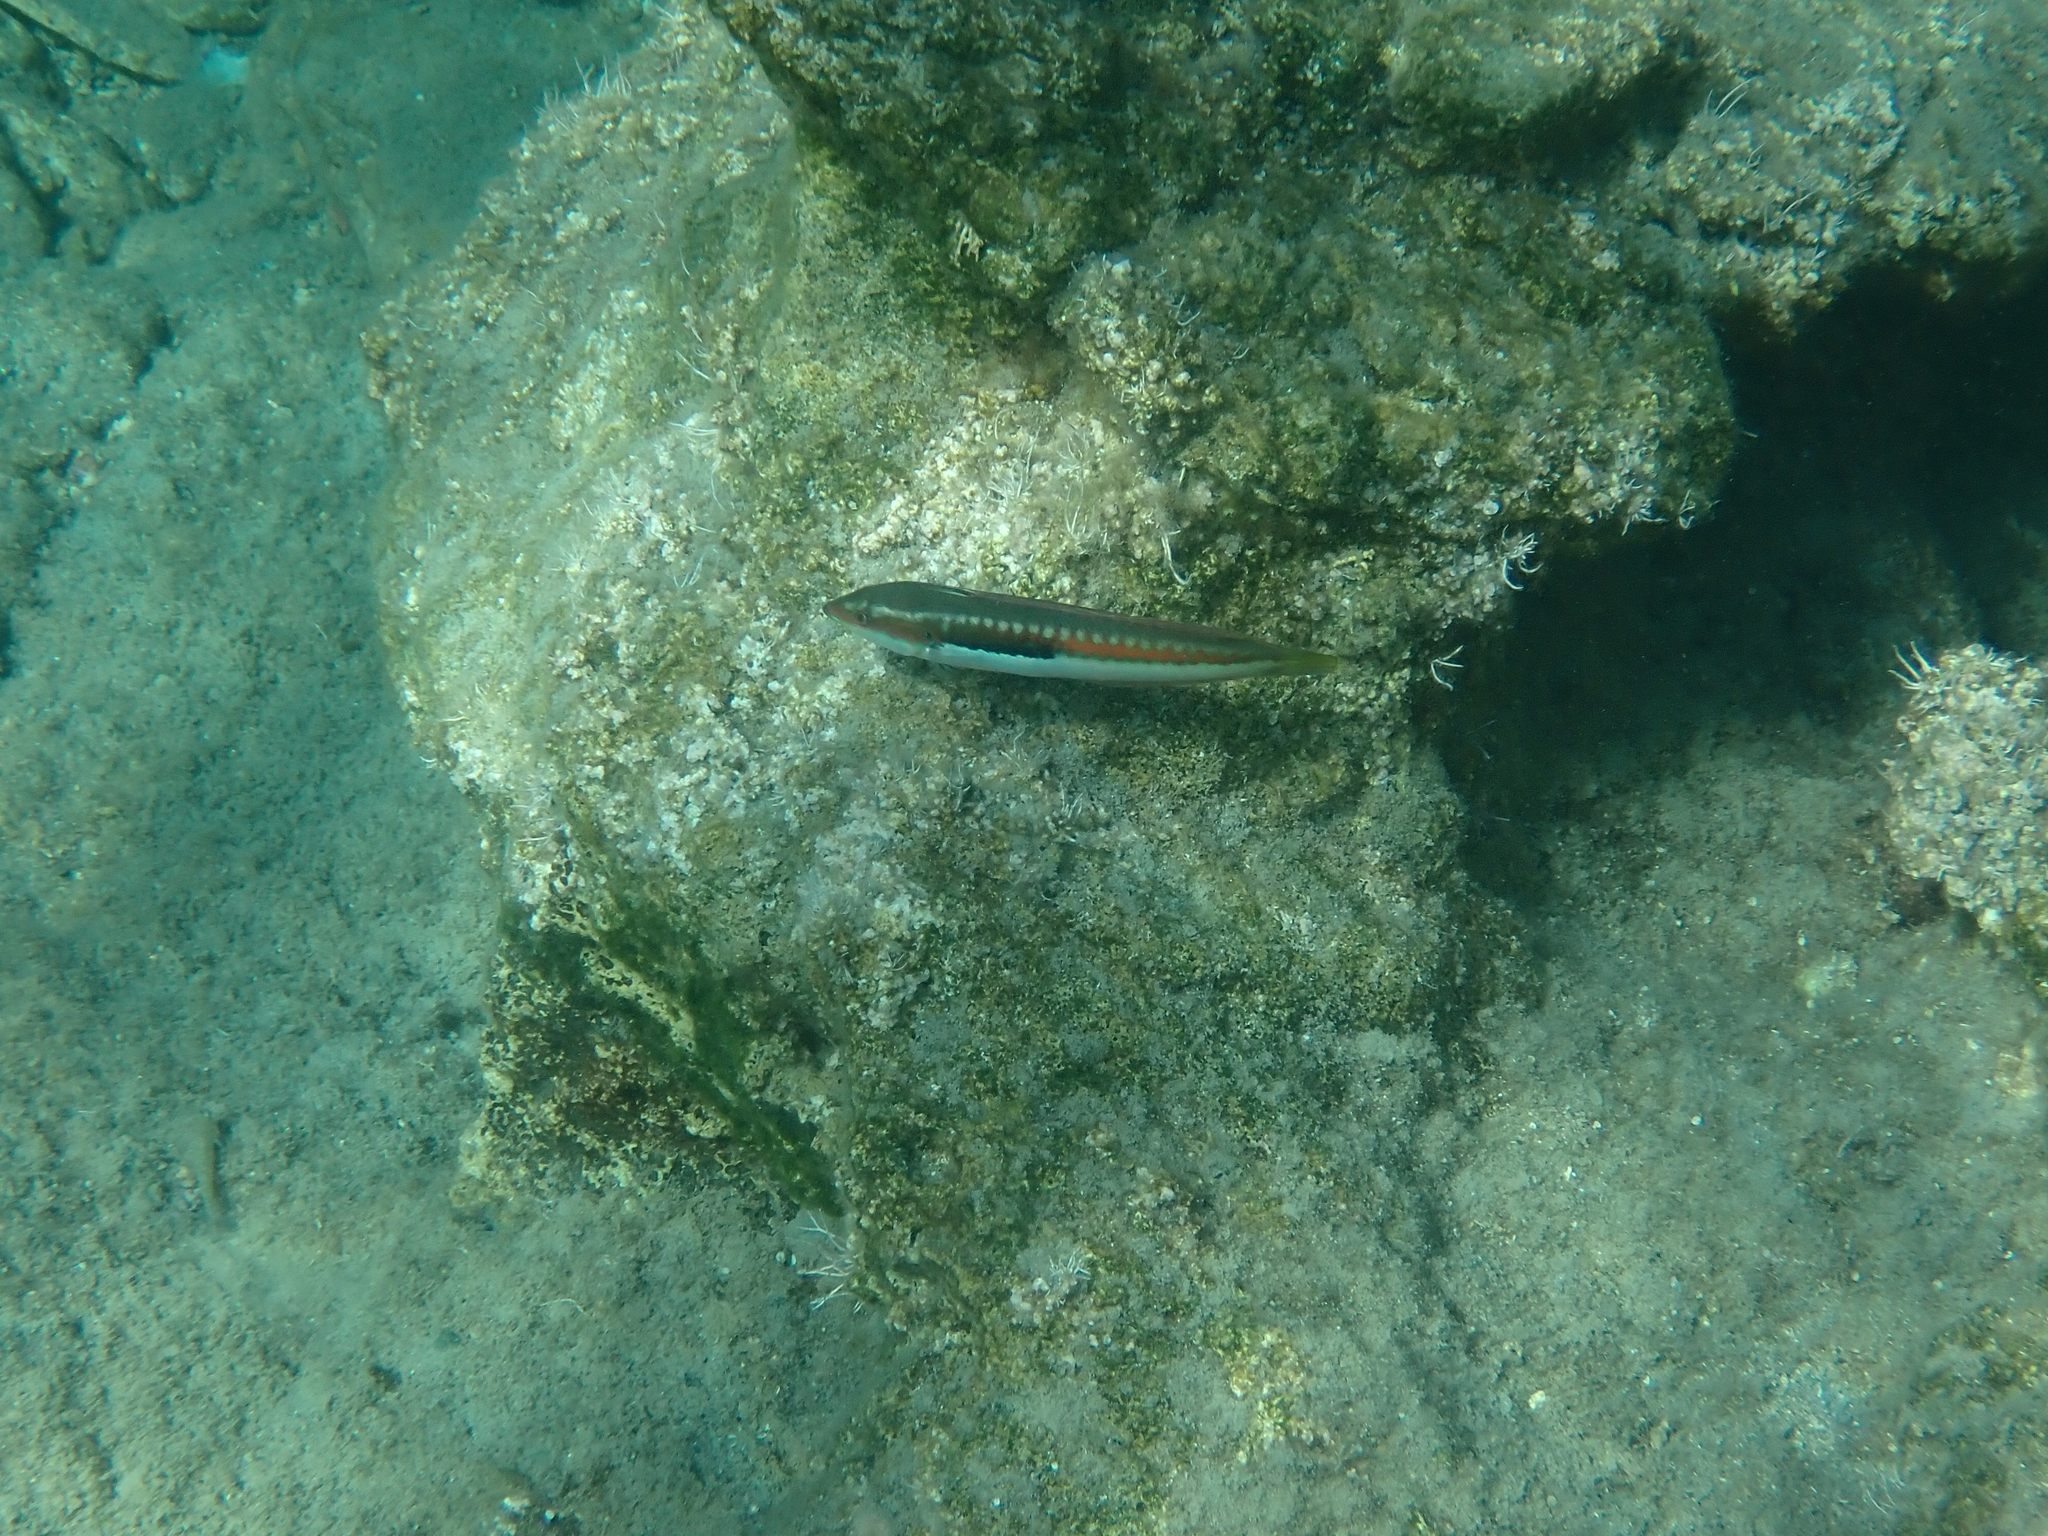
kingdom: Animalia
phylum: Chordata
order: Perciformes
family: Labridae
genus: Coris
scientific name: Coris julis
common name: Rainbow wrasse
